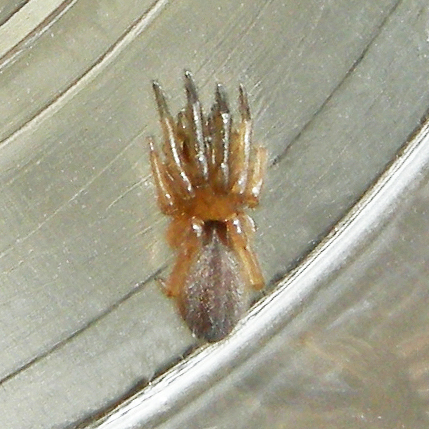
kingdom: Animalia
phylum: Arthropoda
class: Arachnida
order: Araneae
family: Segestriidae
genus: Ariadna
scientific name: Ariadna bicolor
